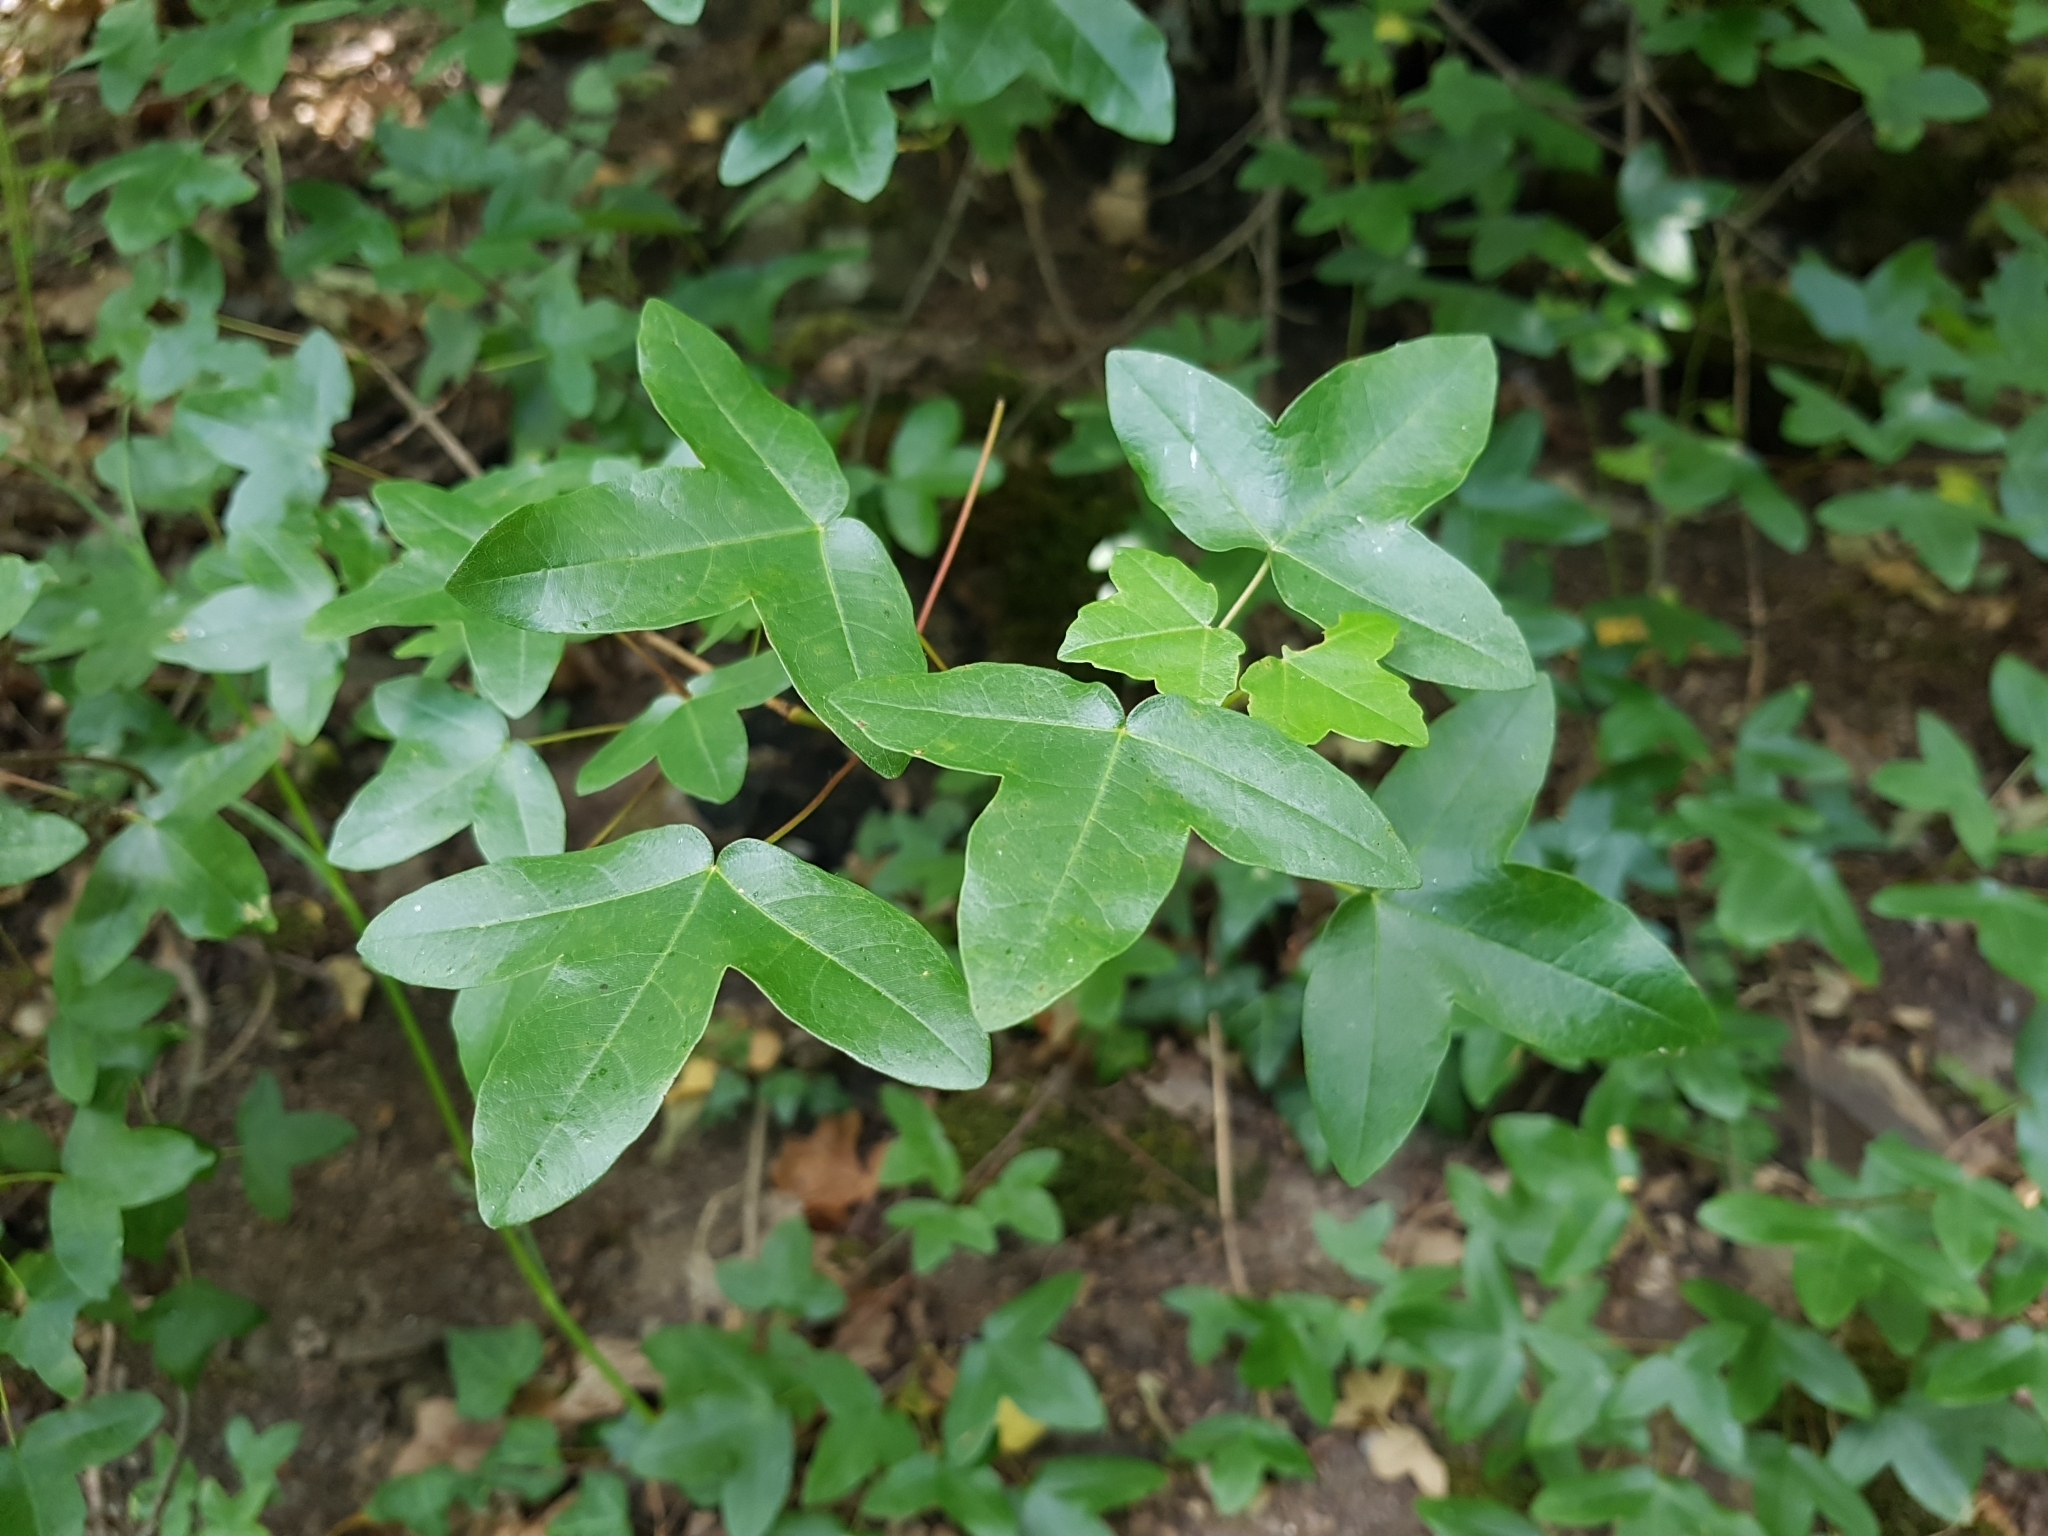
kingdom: Plantae
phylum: Tracheophyta
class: Magnoliopsida
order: Sapindales
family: Sapindaceae
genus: Acer
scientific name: Acer monspessulanum
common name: Montpellier maple
